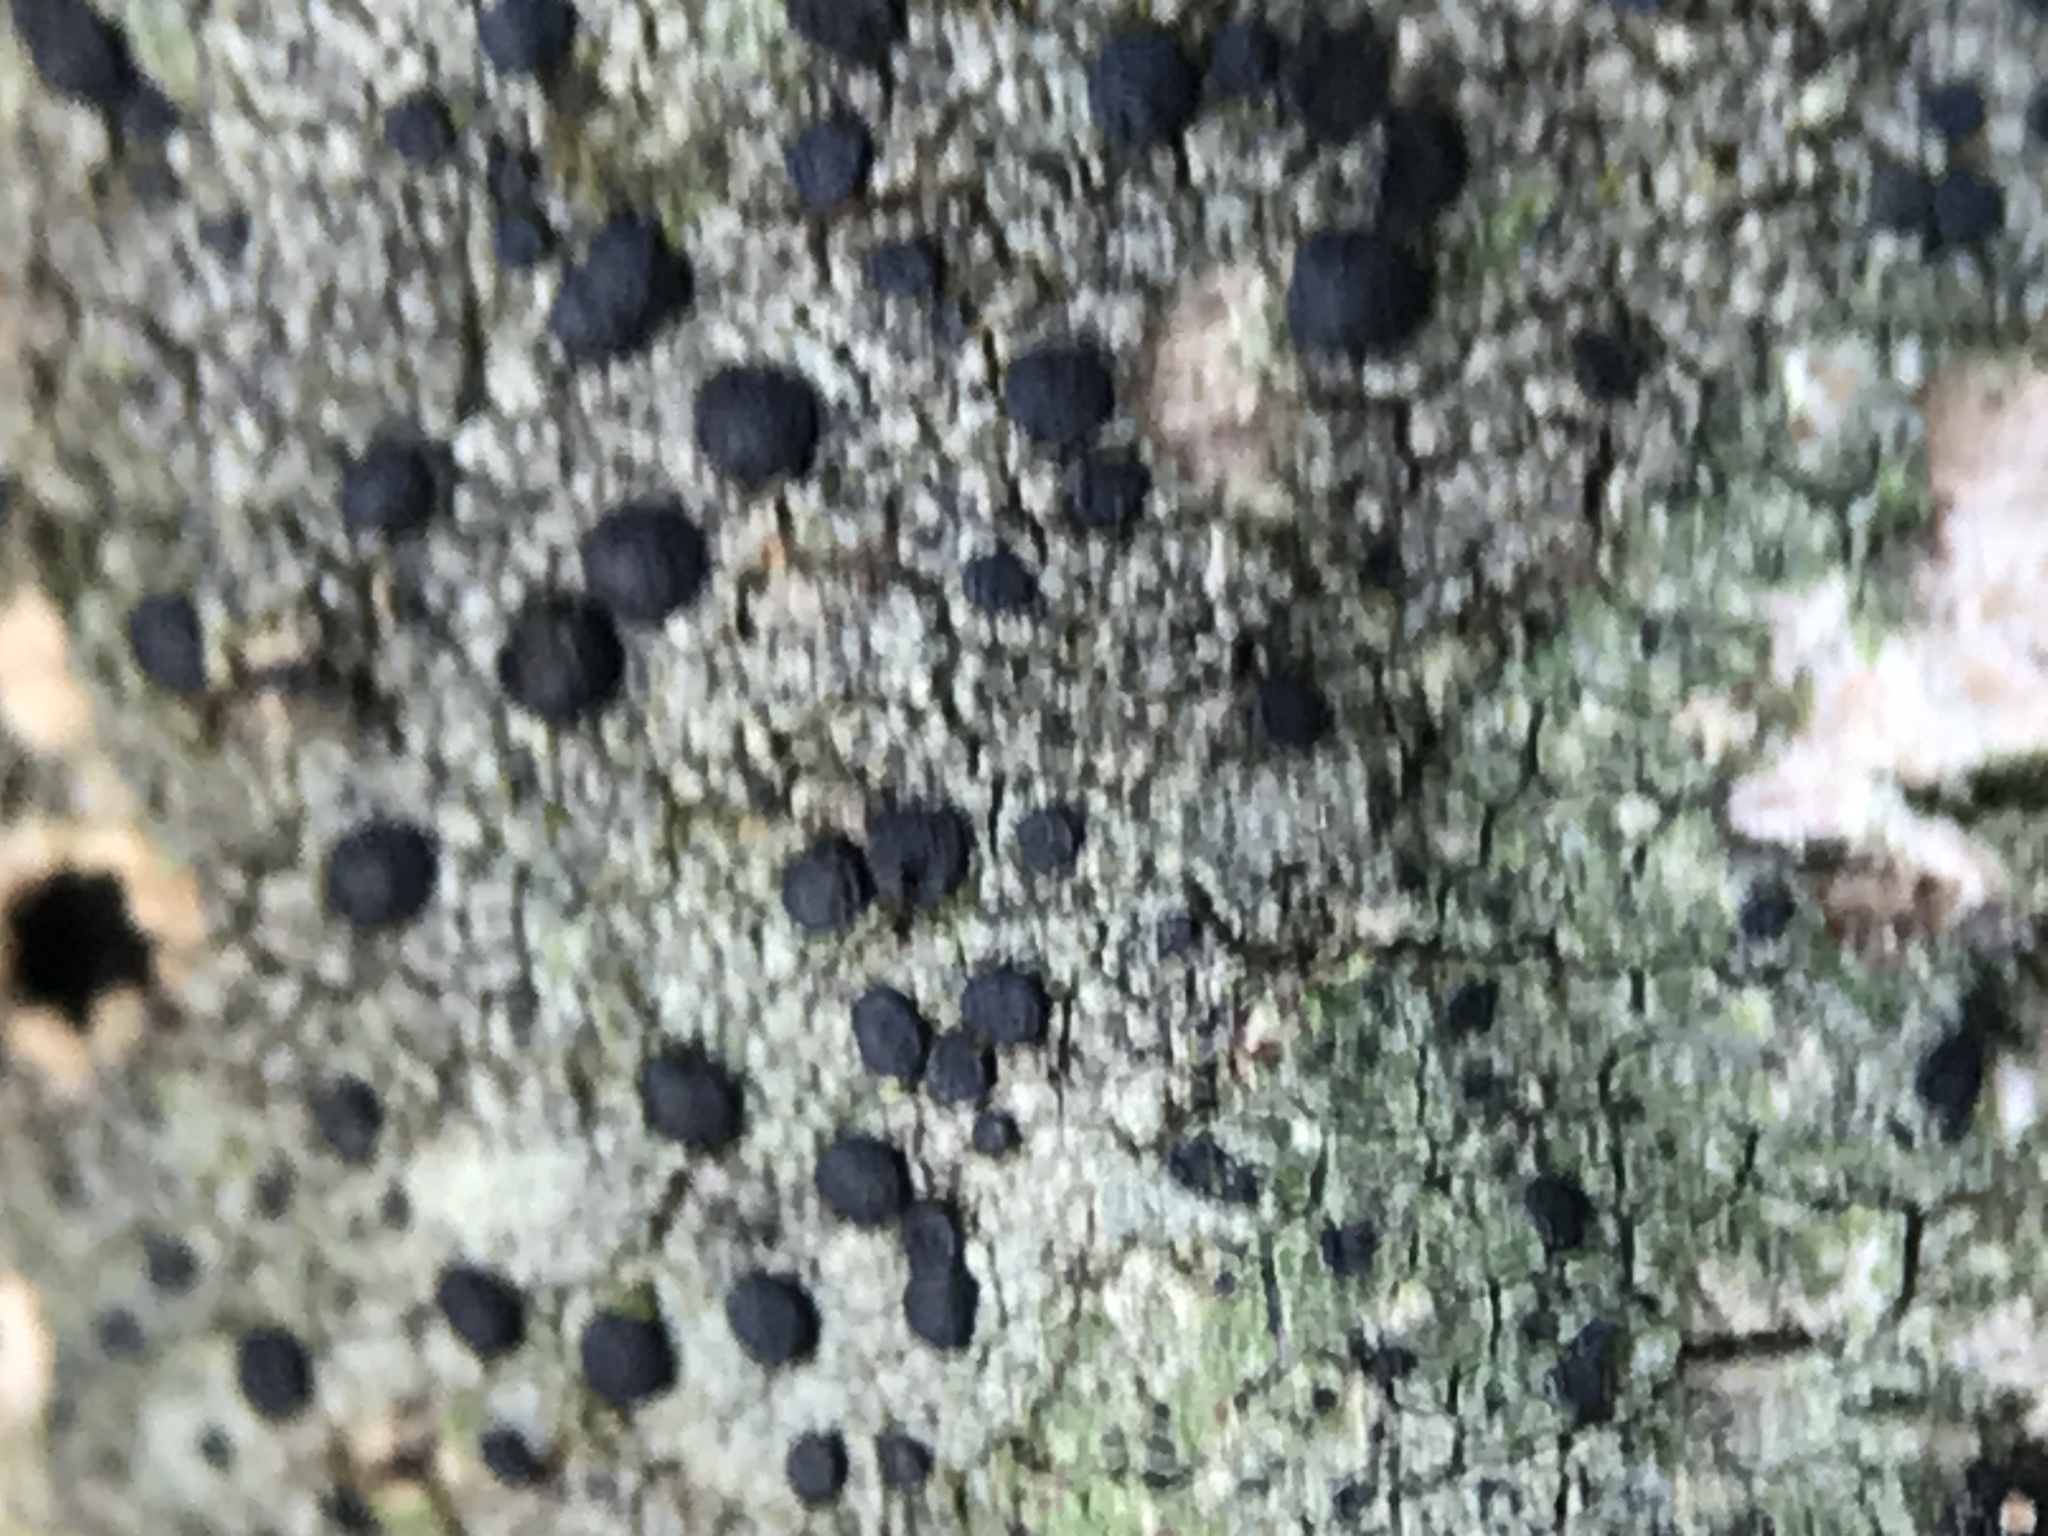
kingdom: Fungi
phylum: Ascomycota
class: Lecanoromycetes
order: Lecanorales
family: Lecanoraceae
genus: Lecidella
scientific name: Lecidella elaeochroma
